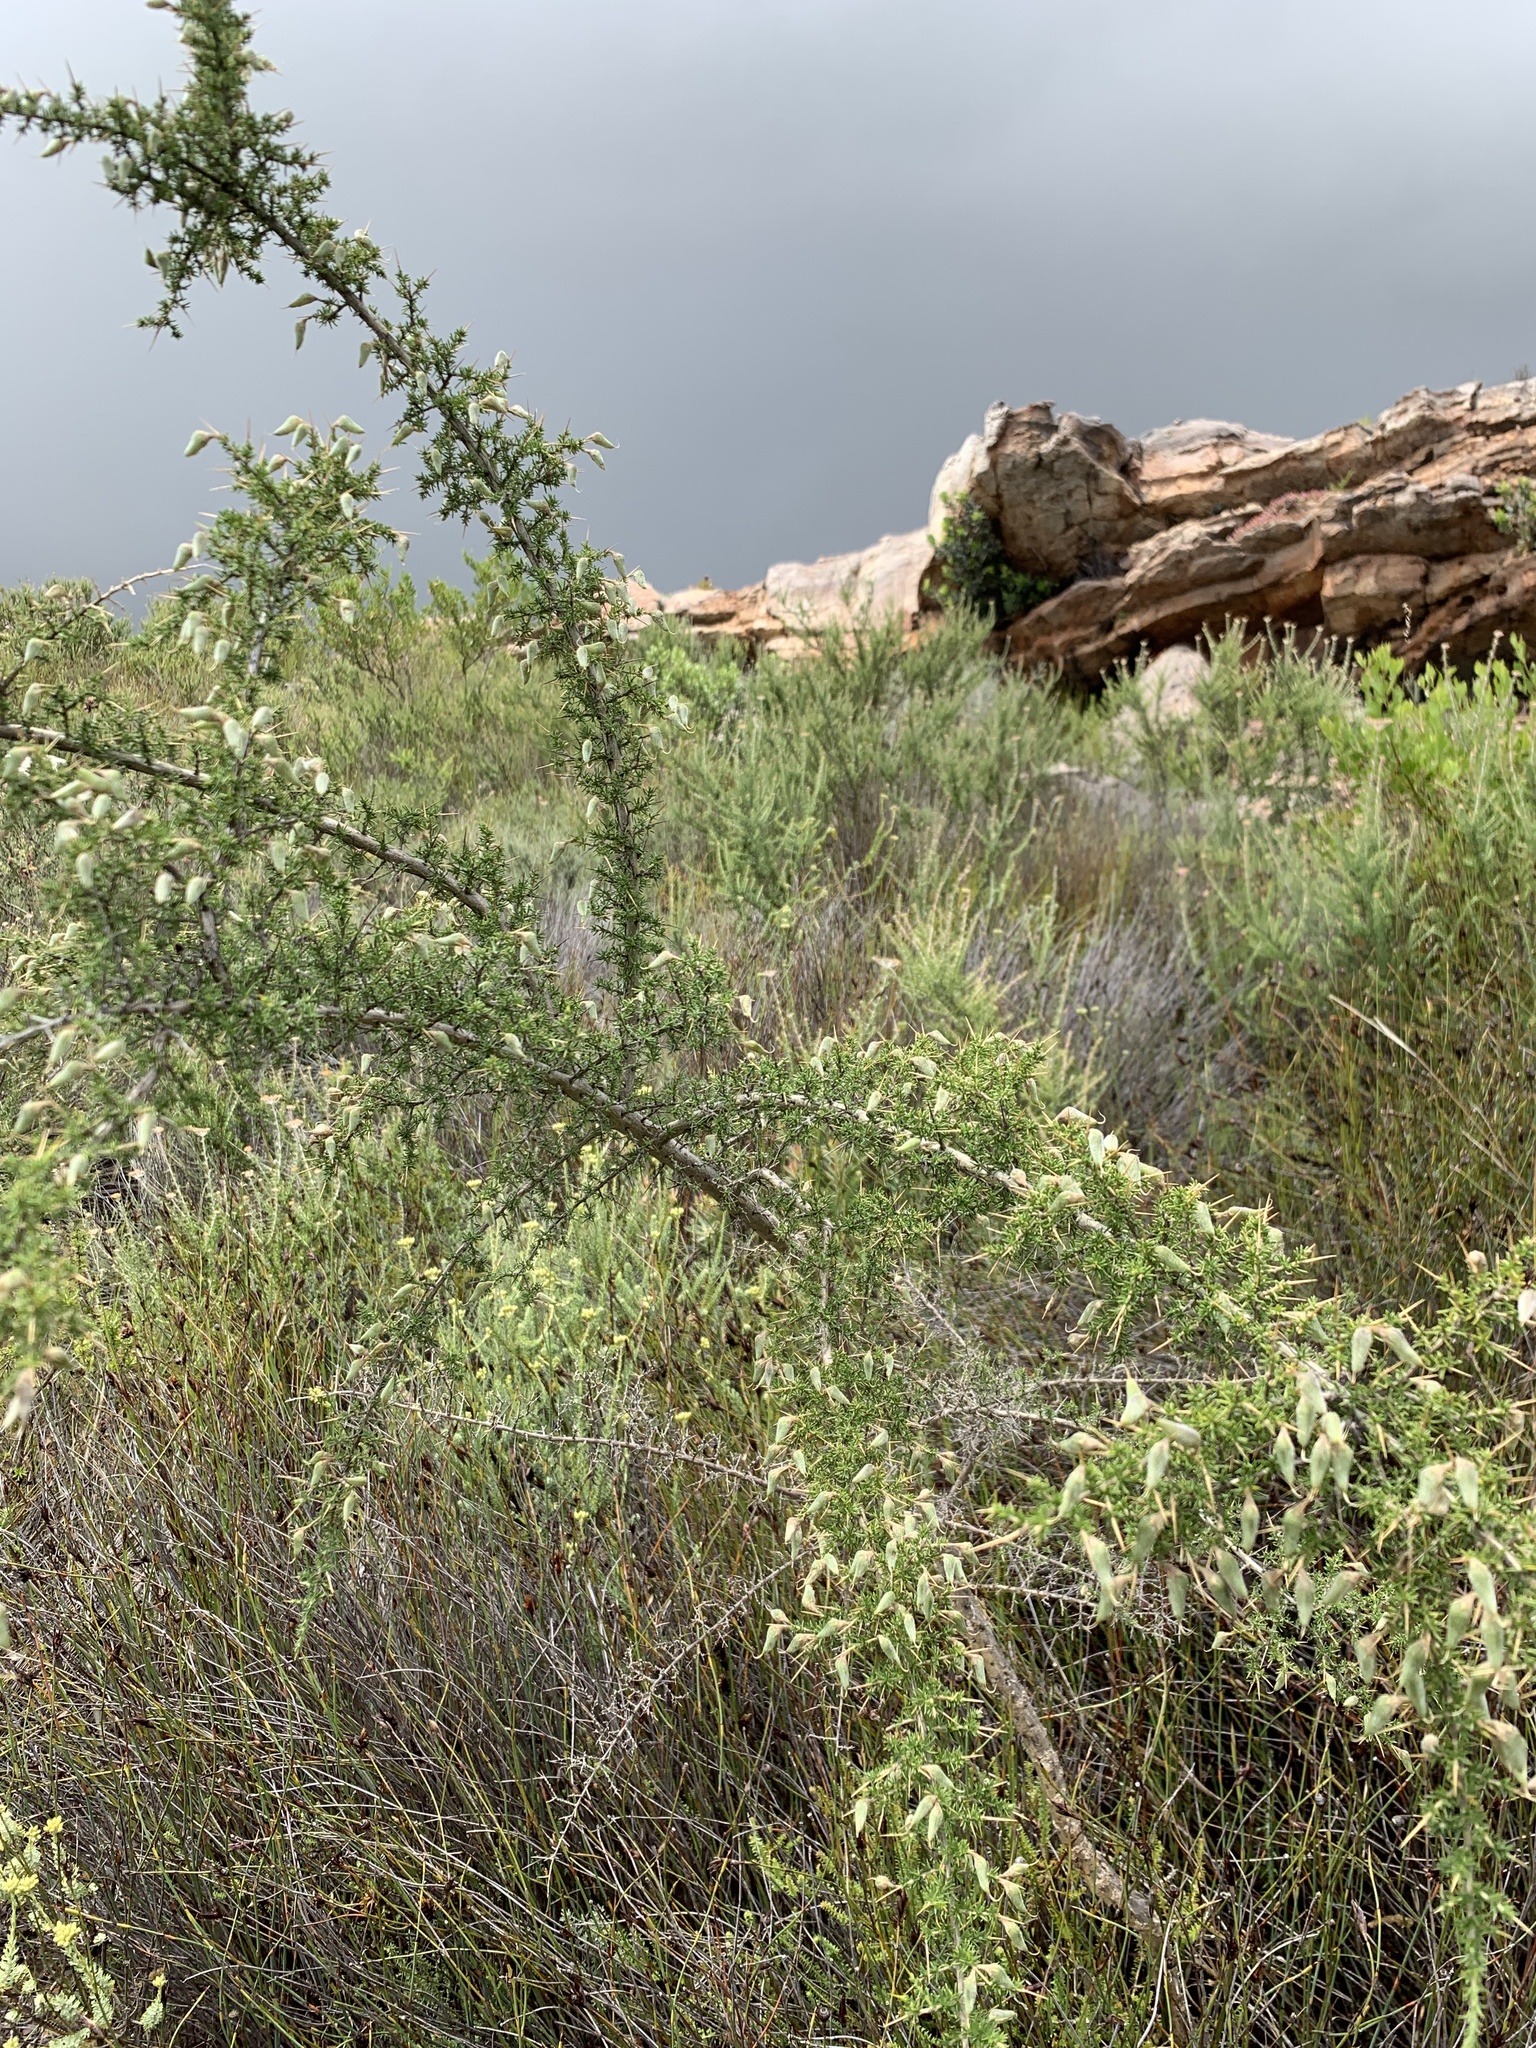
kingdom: Plantae
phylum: Tracheophyta
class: Magnoliopsida
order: Fabales
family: Fabaceae
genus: Aspalathus
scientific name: Aspalathus acuminata
